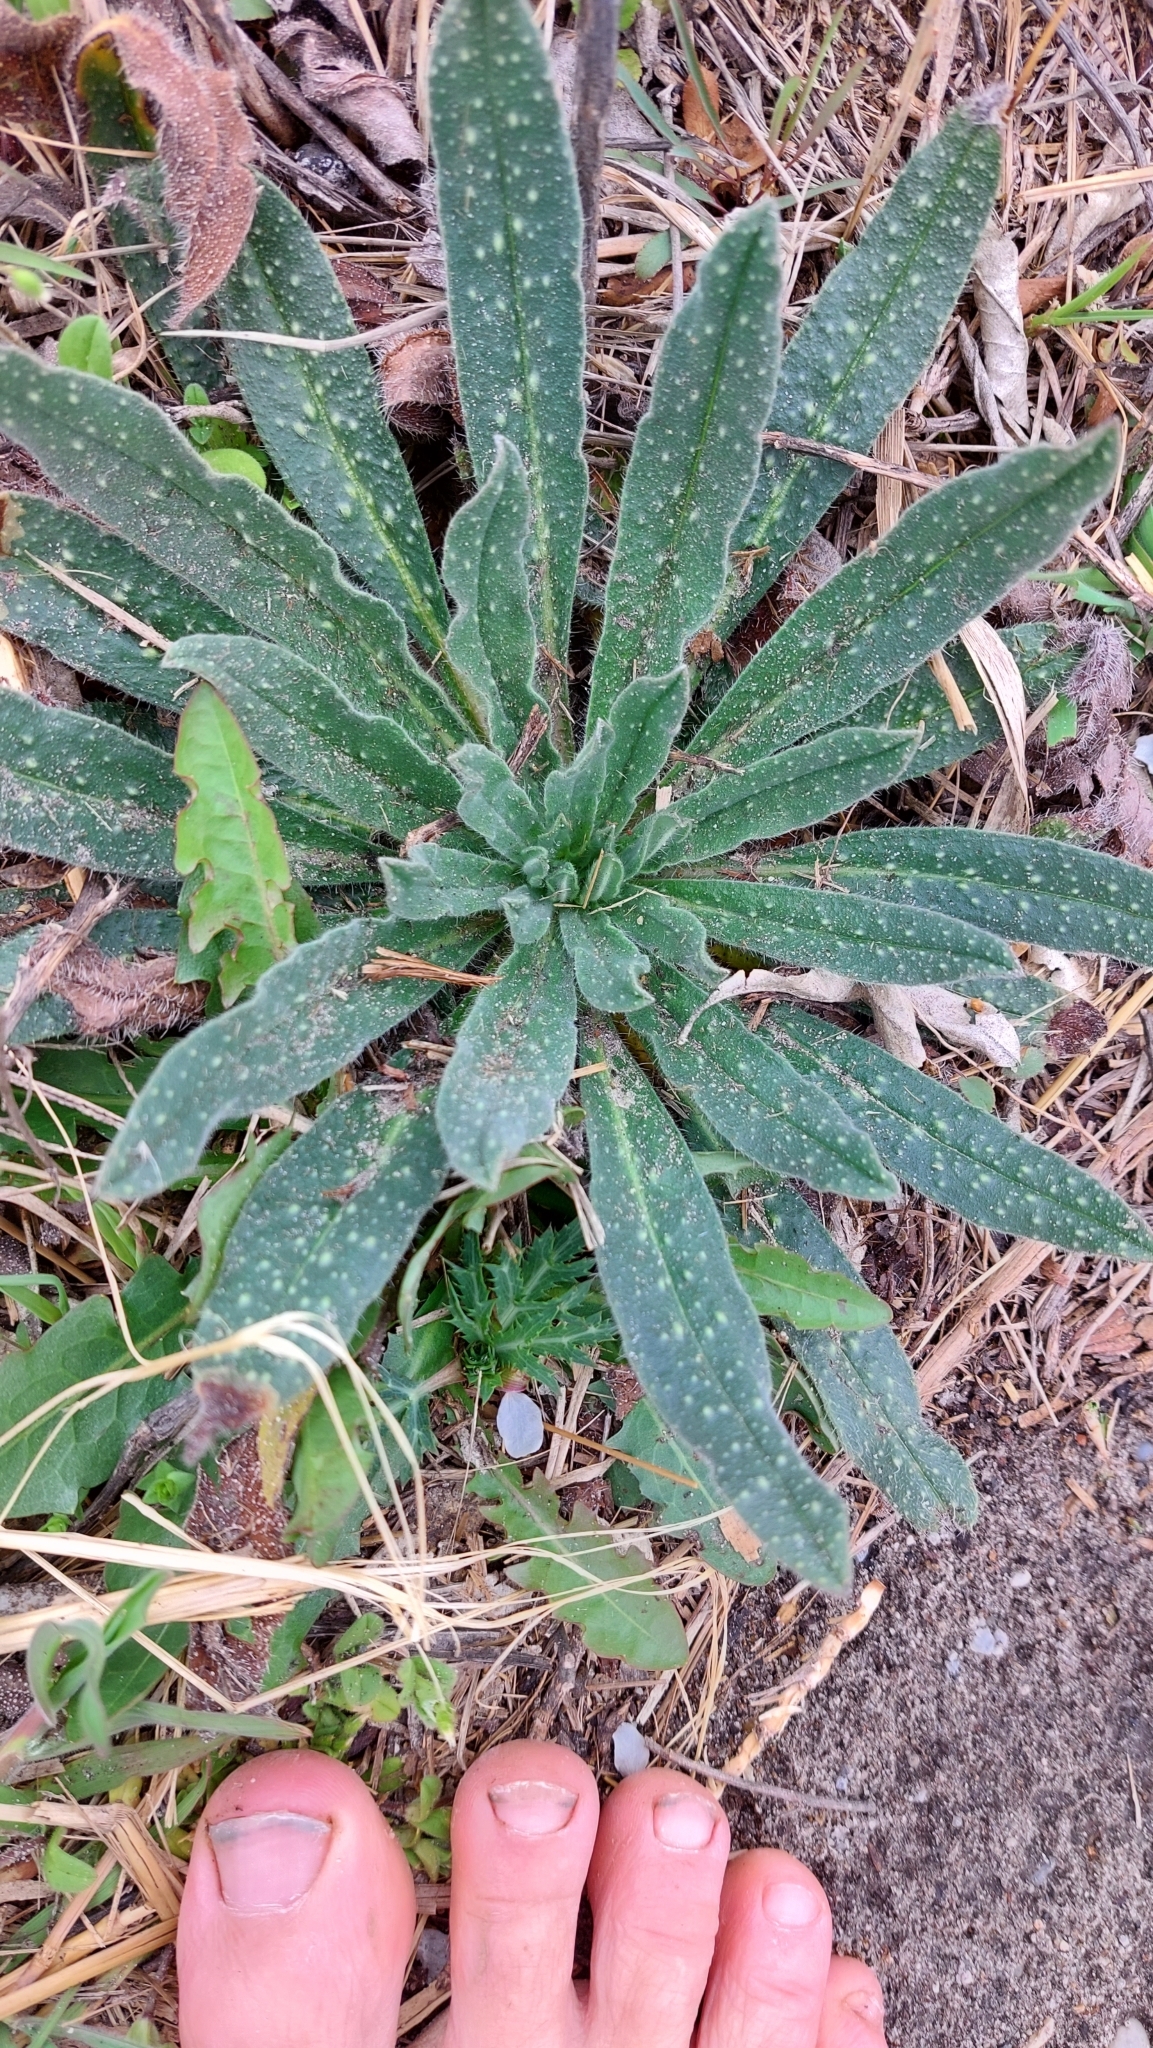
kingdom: Plantae
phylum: Tracheophyta
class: Magnoliopsida
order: Boraginales
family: Boraginaceae
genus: Echium
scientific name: Echium vulgare
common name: Common viper's bugloss
